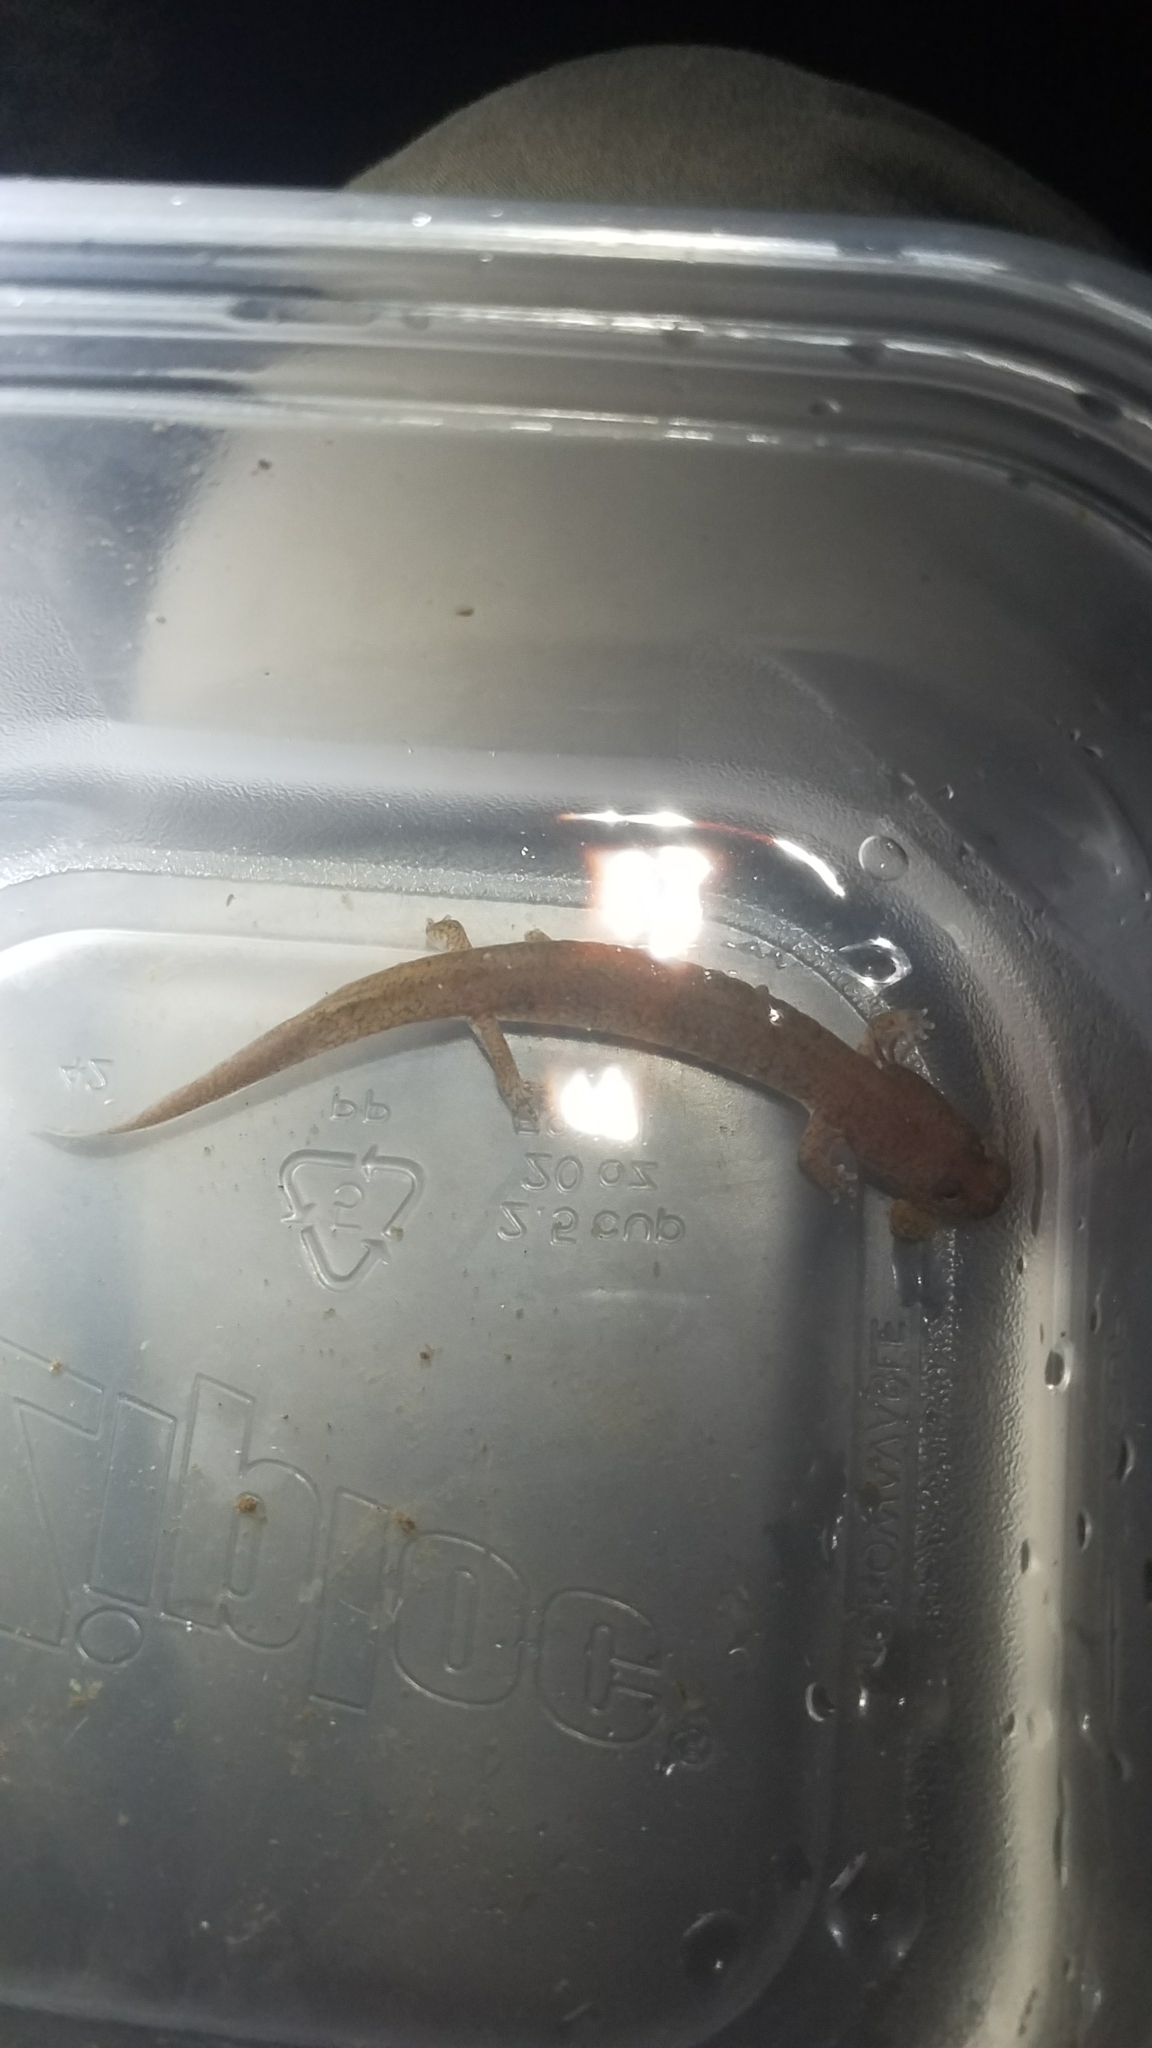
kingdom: Animalia
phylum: Chordata
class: Amphibia
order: Caudata
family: Plethodontidae
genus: Gyrinophilus
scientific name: Gyrinophilus porphyriticus
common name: Spring salamander
